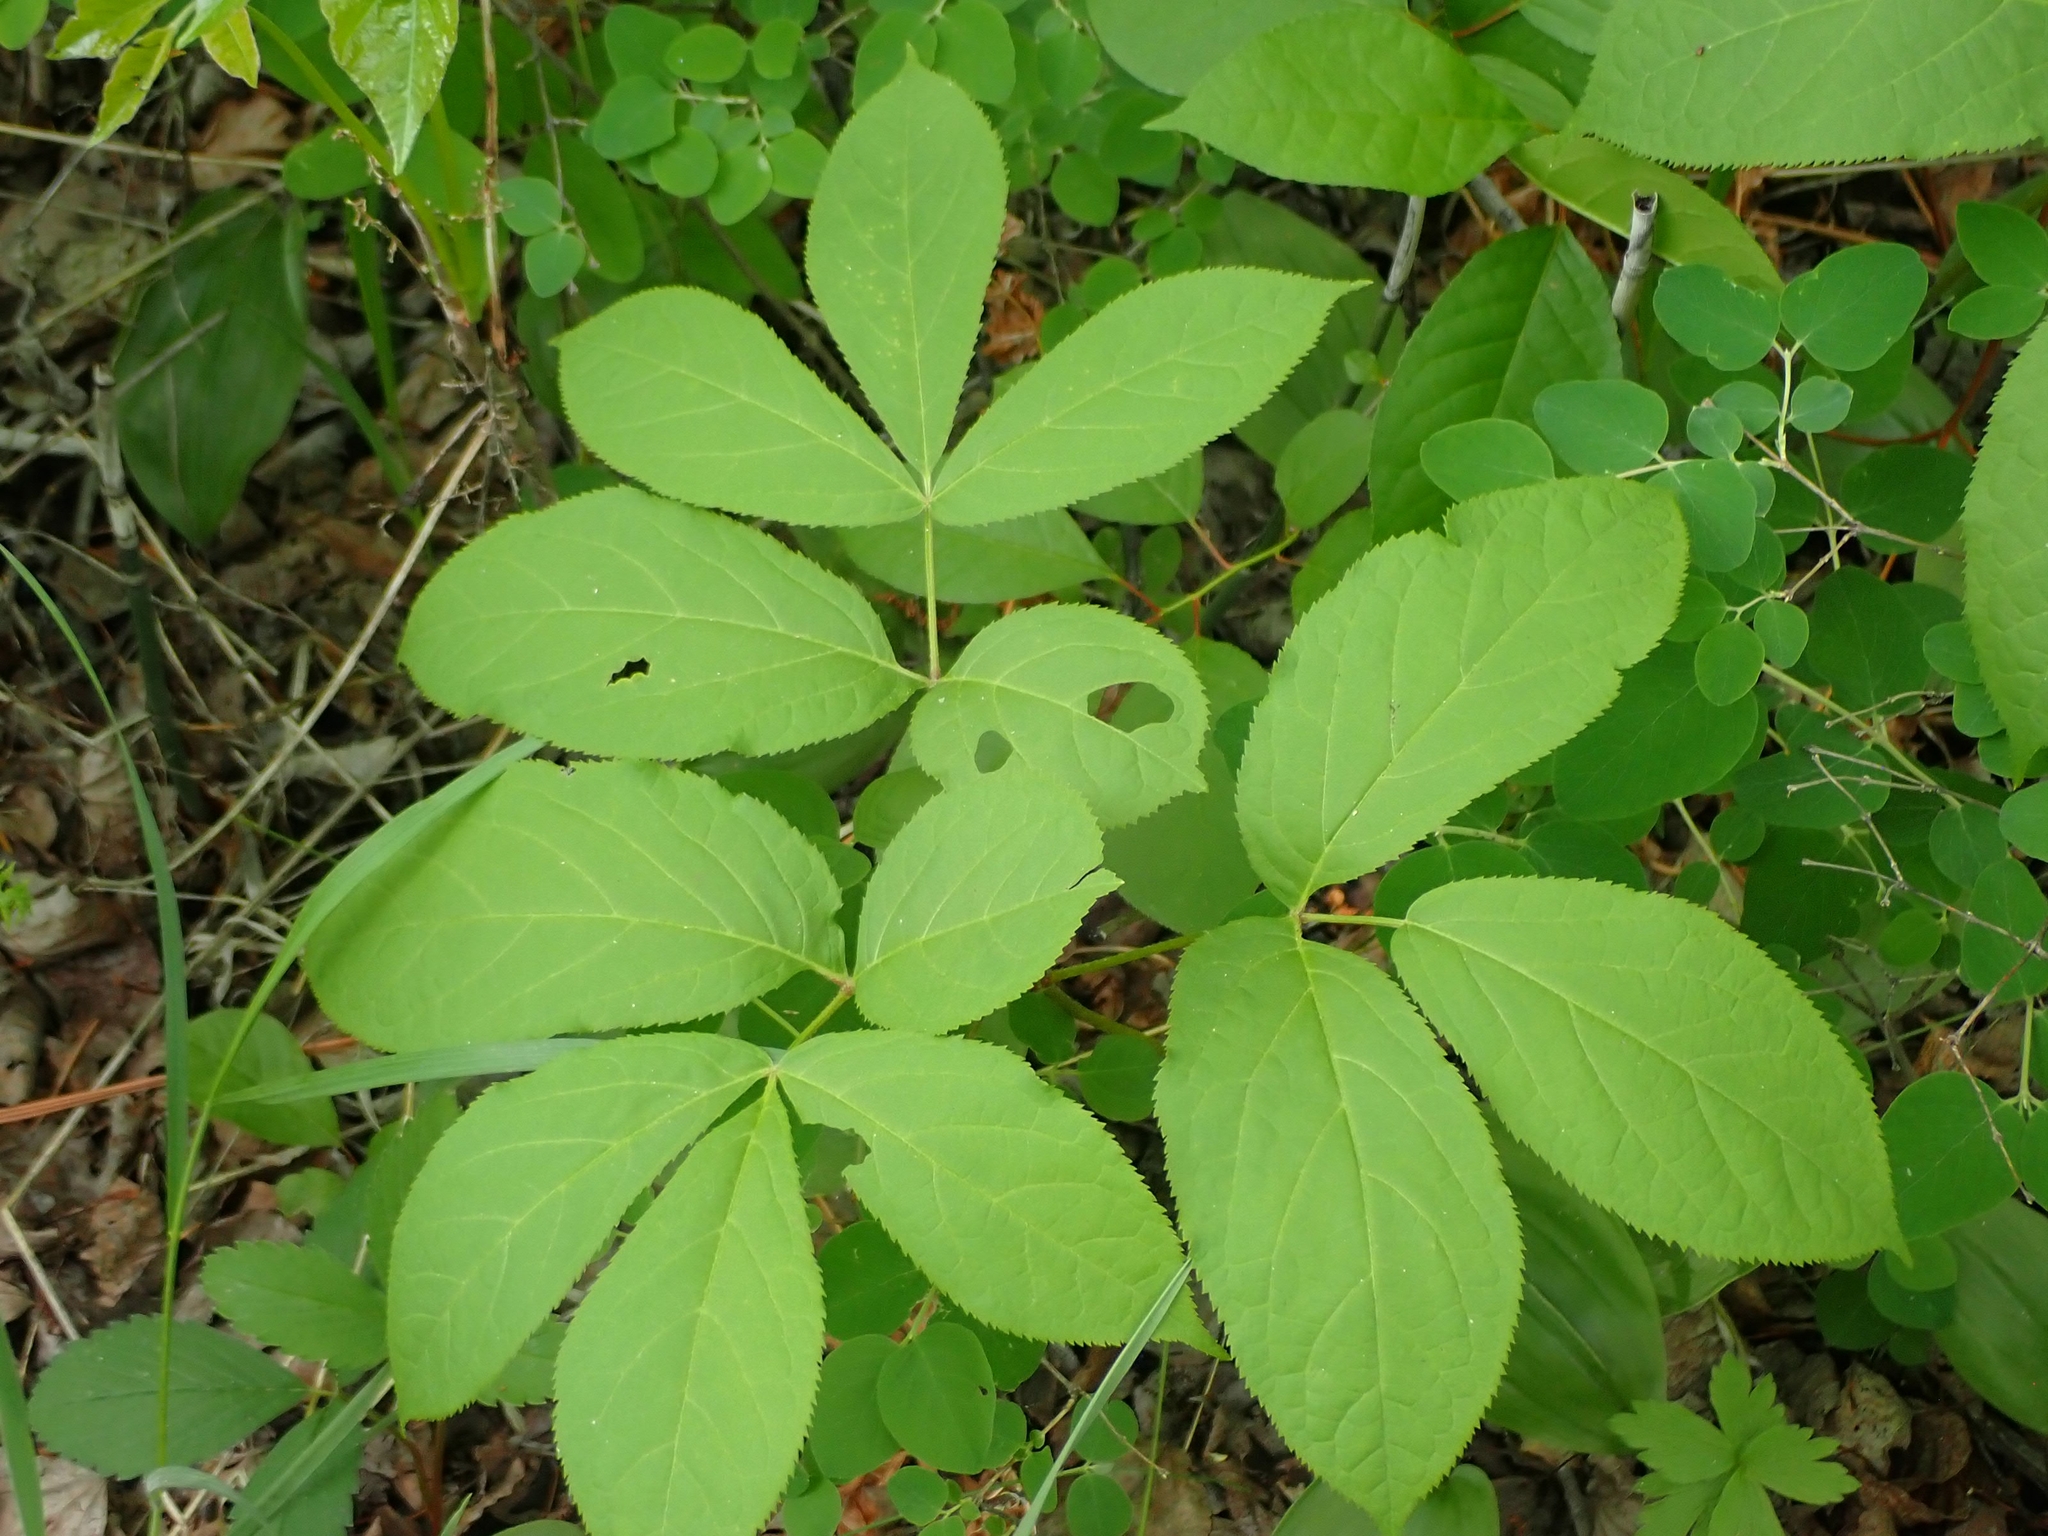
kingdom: Plantae
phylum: Tracheophyta
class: Magnoliopsida
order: Apiales
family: Araliaceae
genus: Aralia
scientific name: Aralia nudicaulis
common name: Wild sarsaparilla
